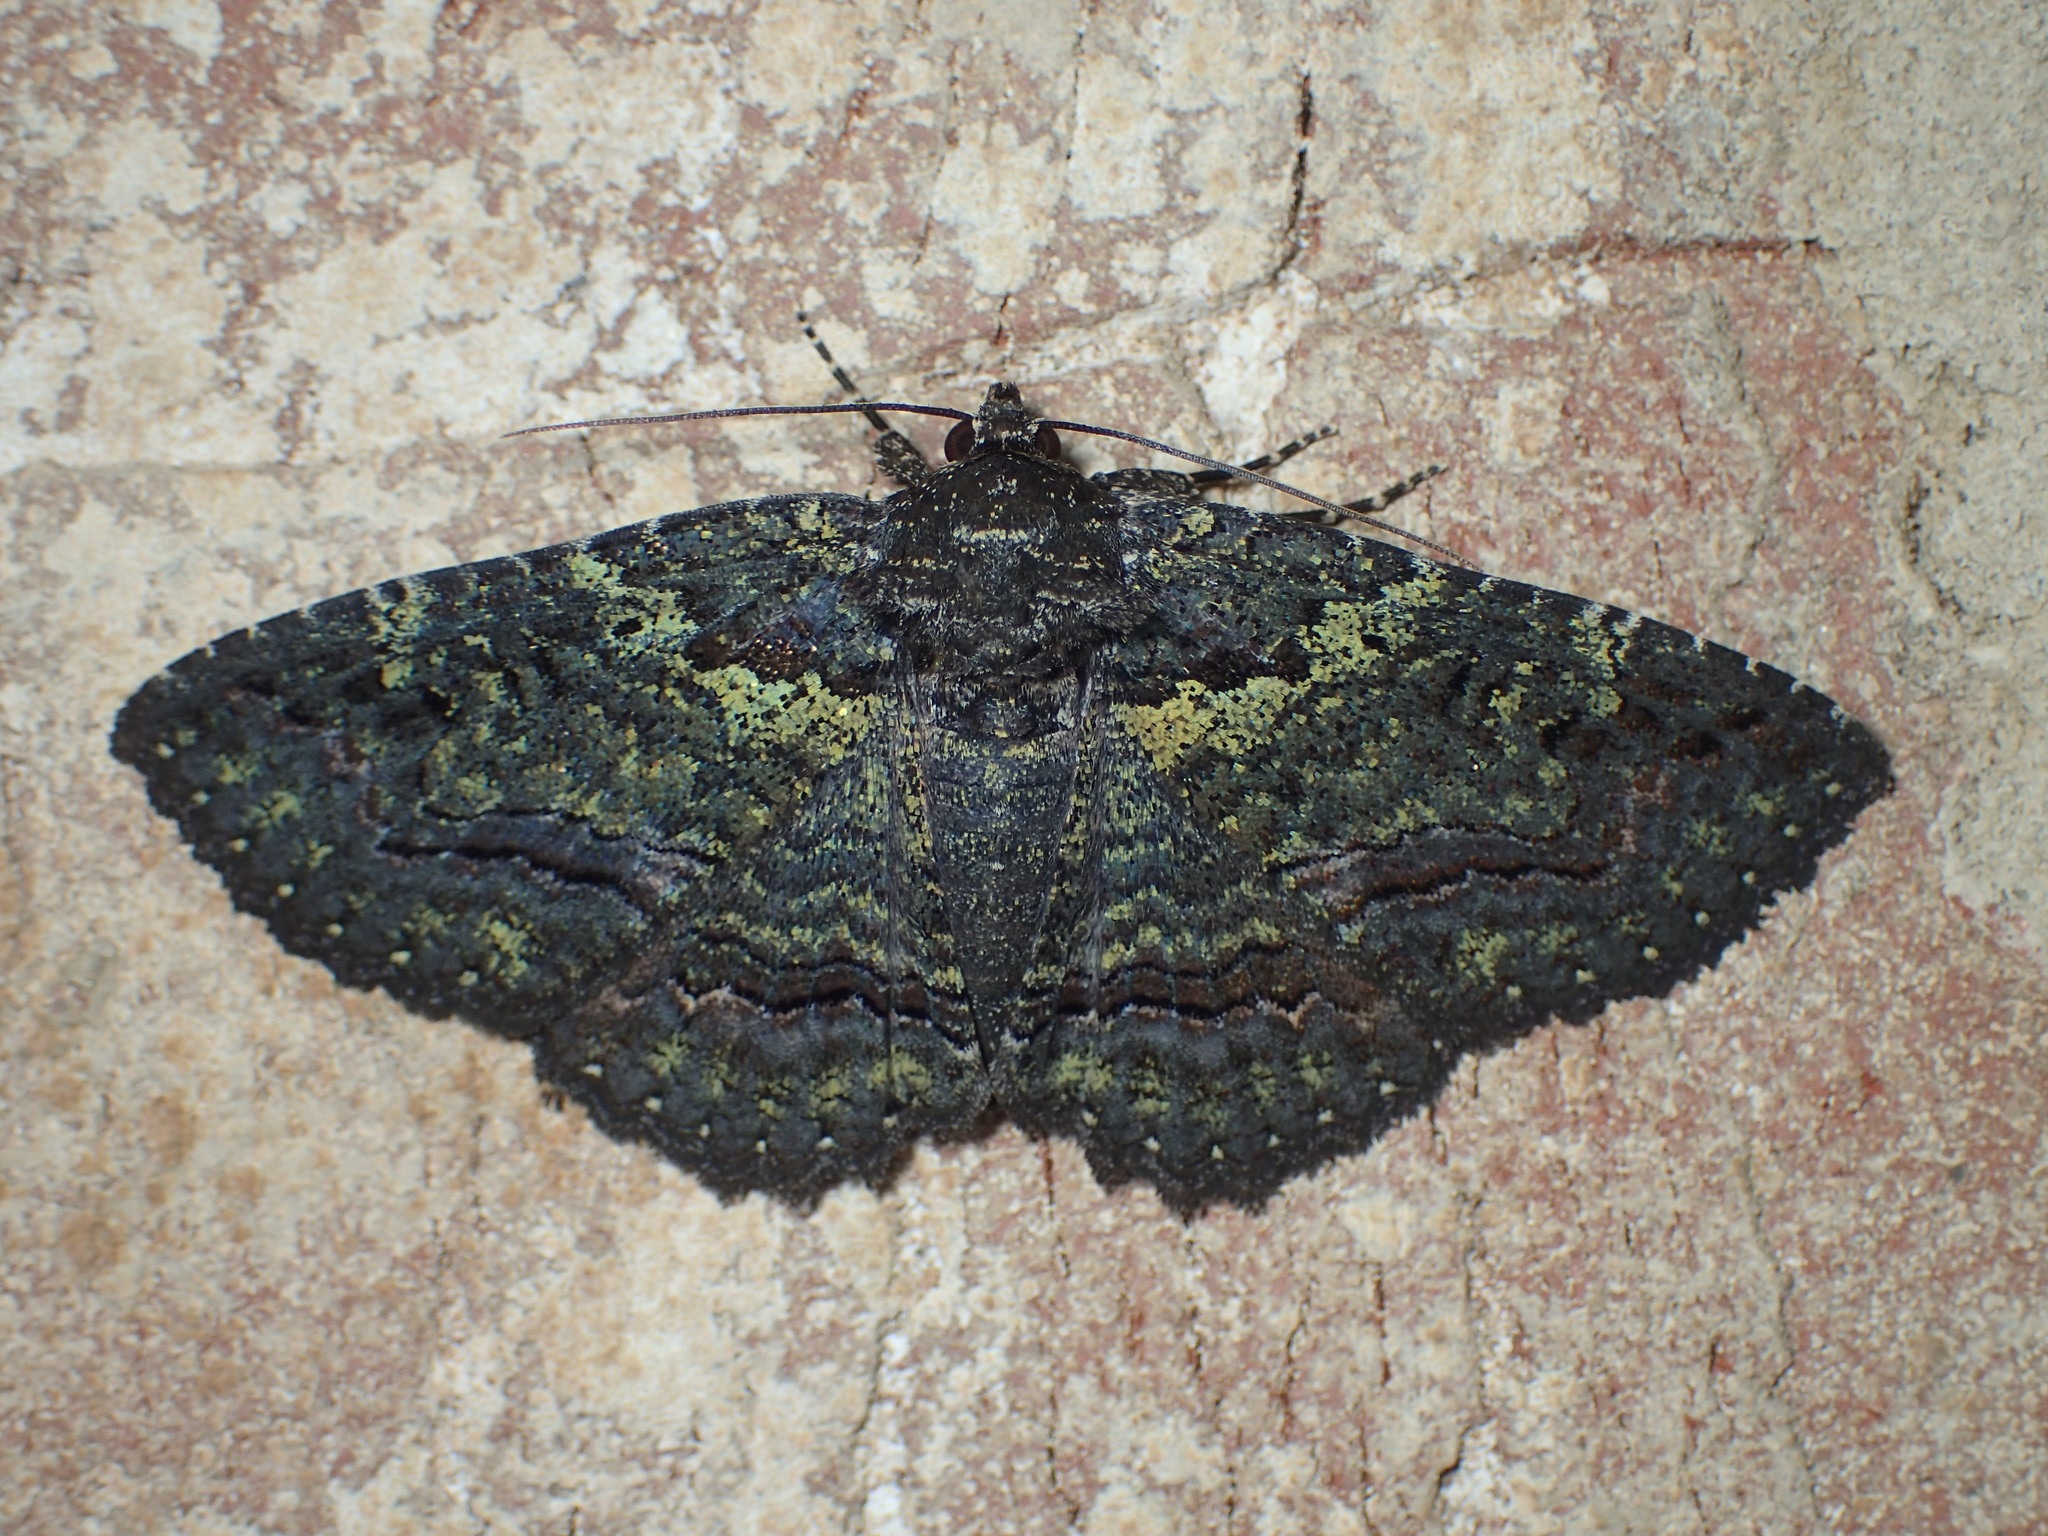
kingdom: Animalia
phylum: Arthropoda
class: Insecta
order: Lepidoptera
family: Erebidae
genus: Zale
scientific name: Zale aeruginosa
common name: Green-dusted zale moth
